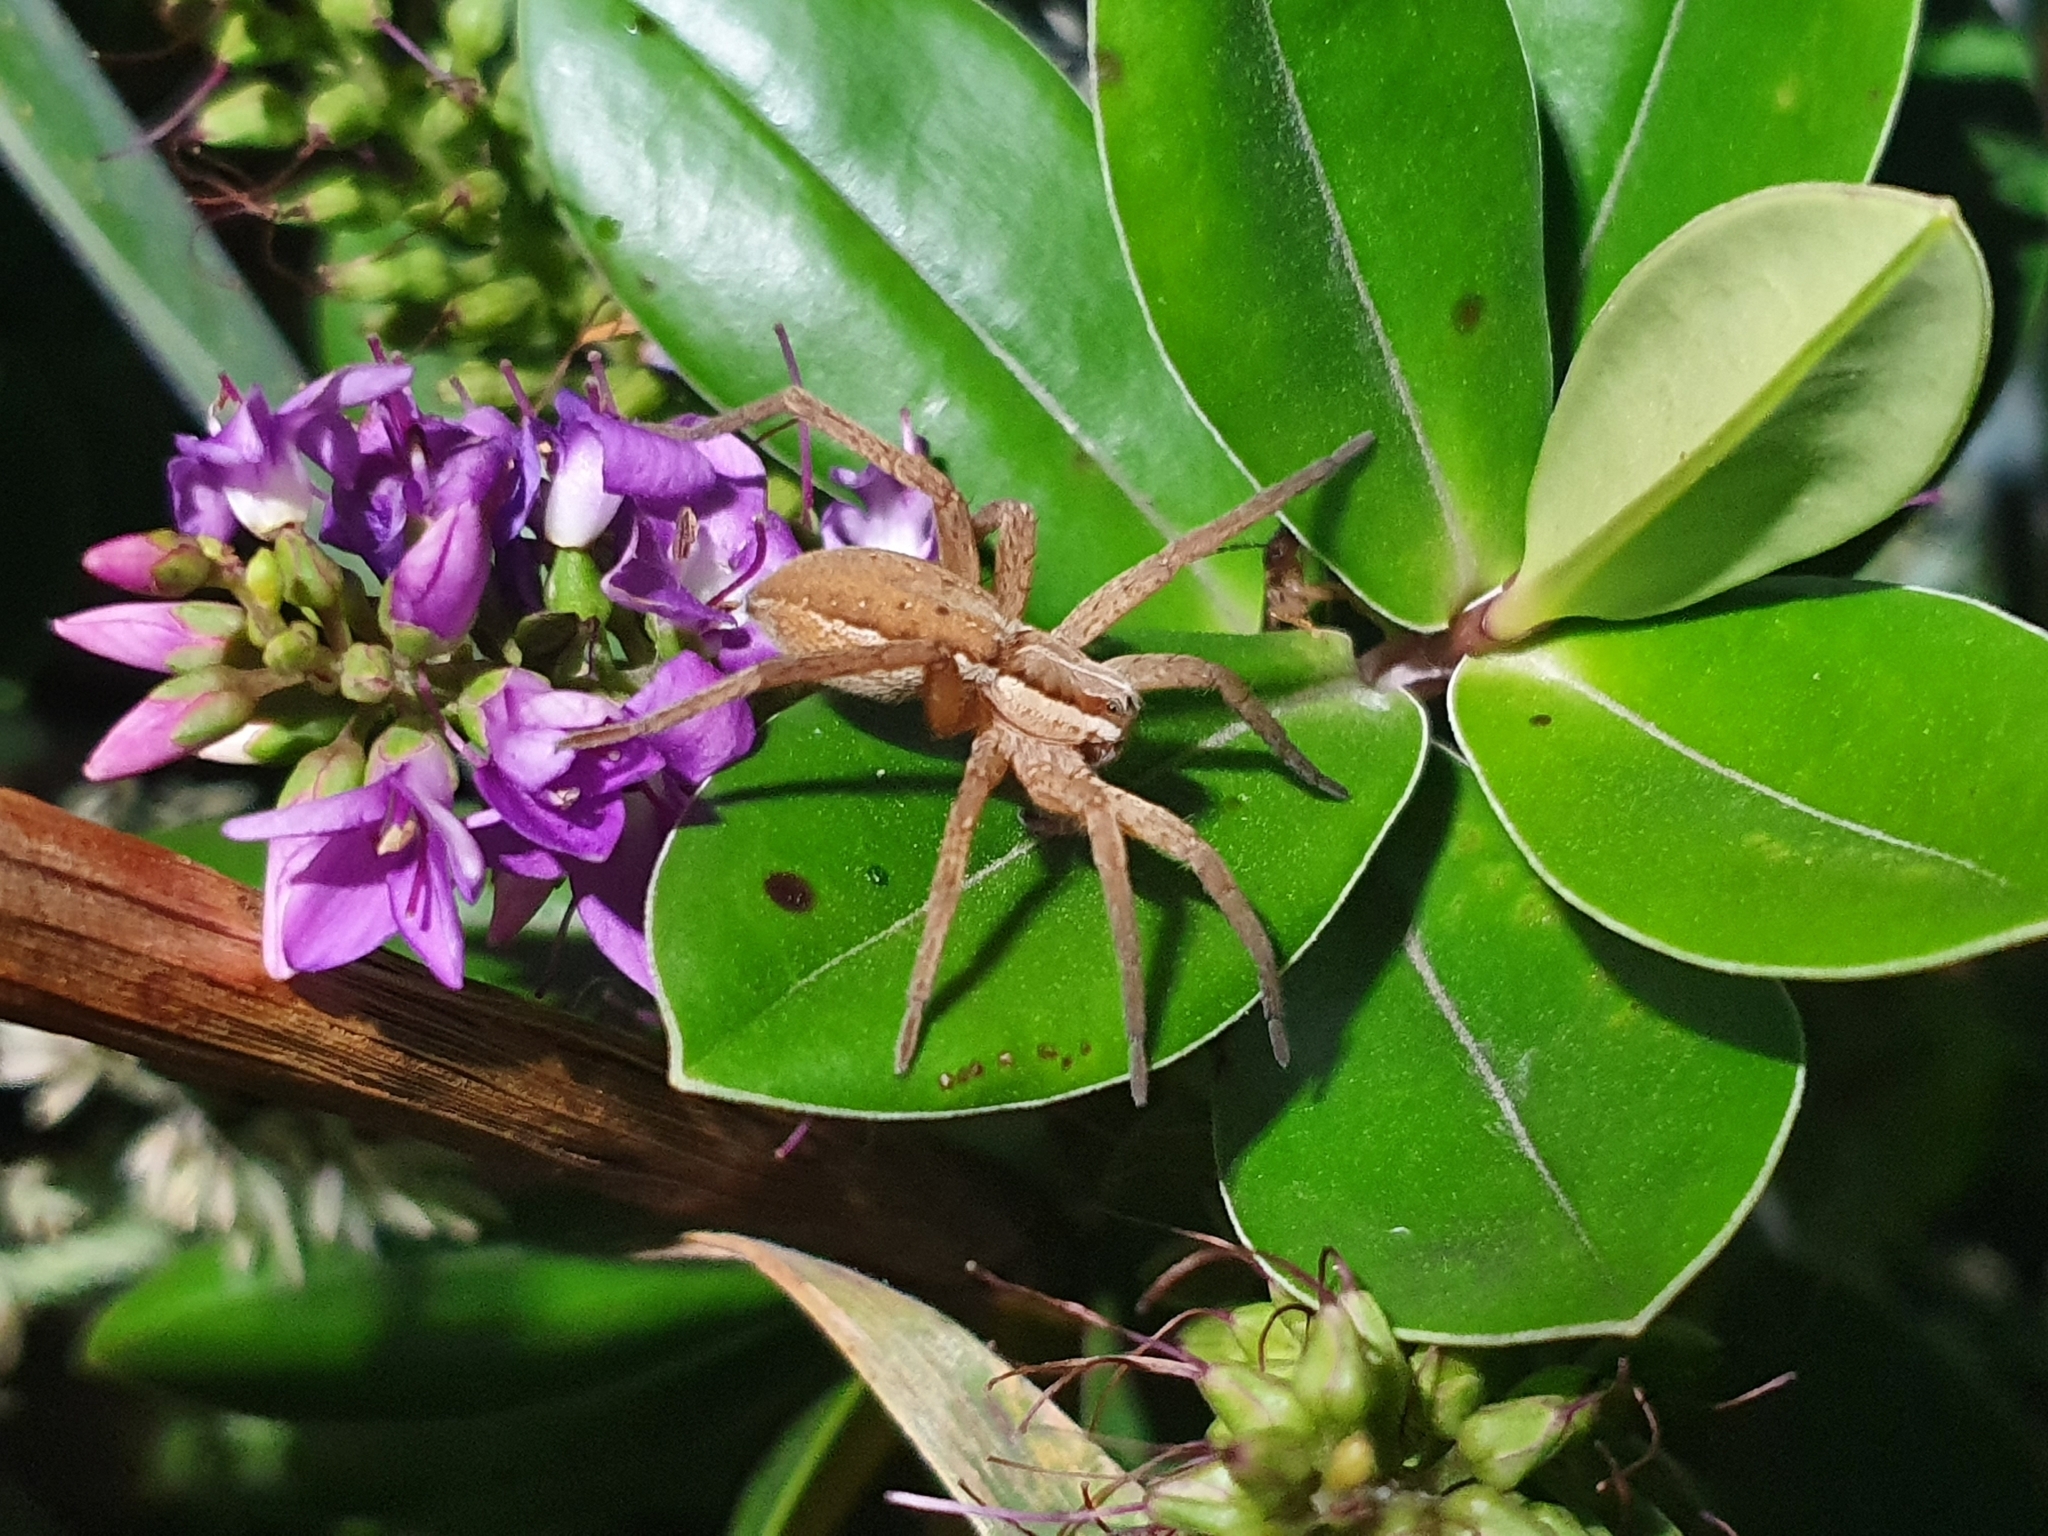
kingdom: Animalia
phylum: Arthropoda
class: Arachnida
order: Araneae
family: Pisauridae
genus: Dolomedes
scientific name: Dolomedes minor
